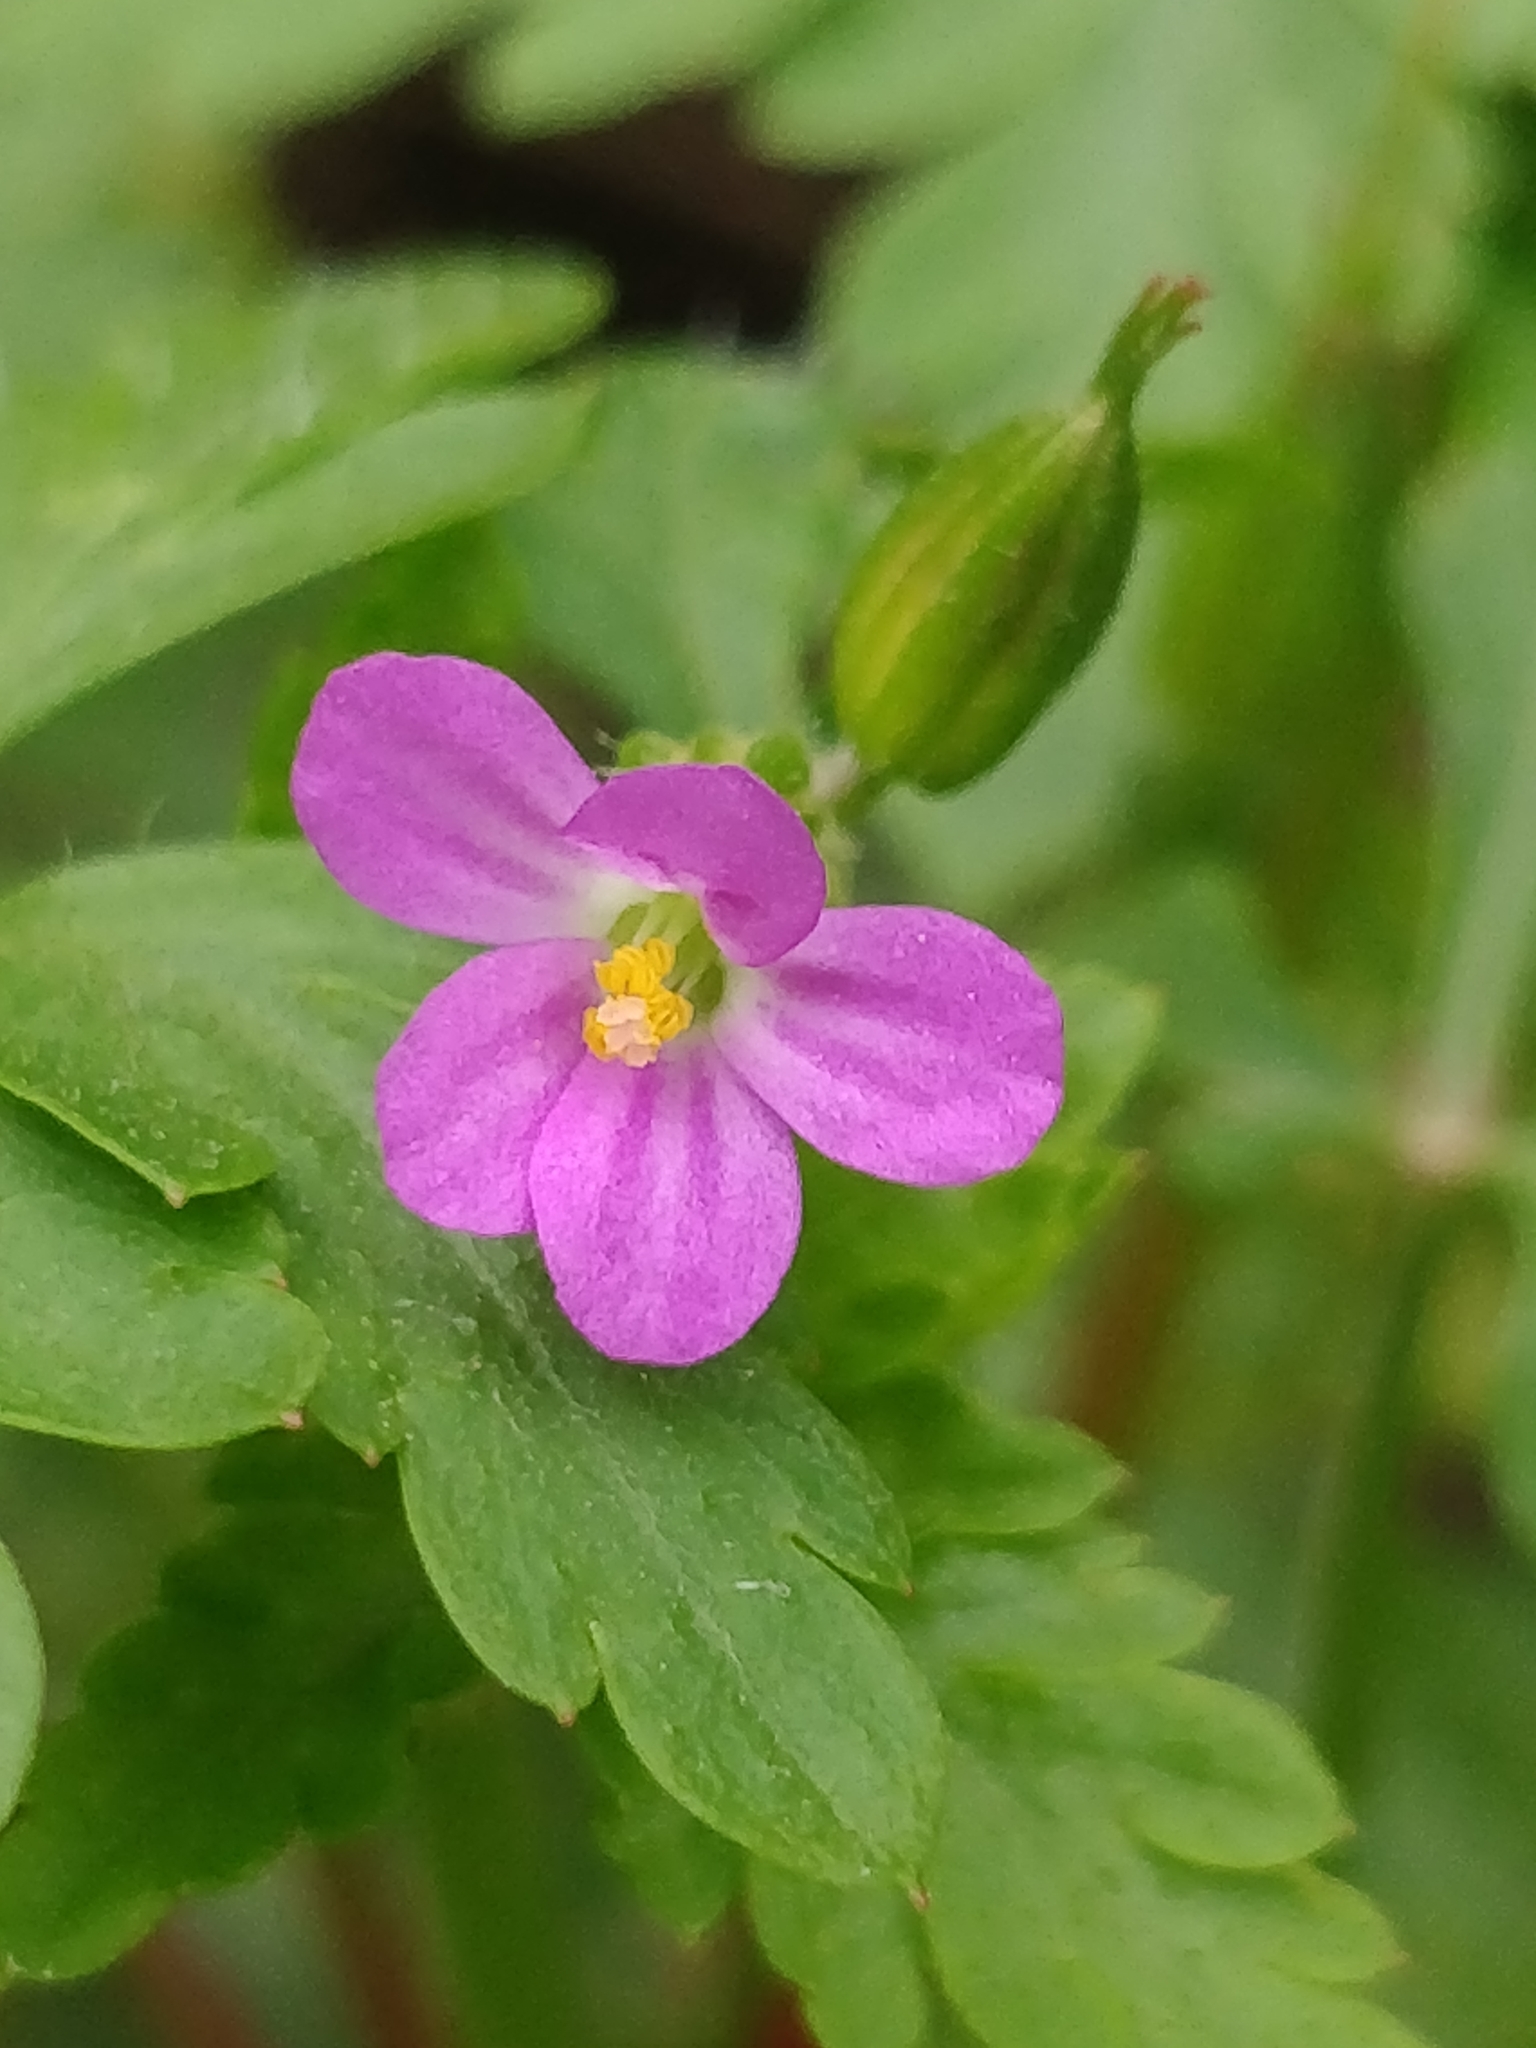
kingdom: Plantae
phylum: Tracheophyta
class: Magnoliopsida
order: Geraniales
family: Geraniaceae
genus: Geranium
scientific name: Geranium purpureum
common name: Little-robin
